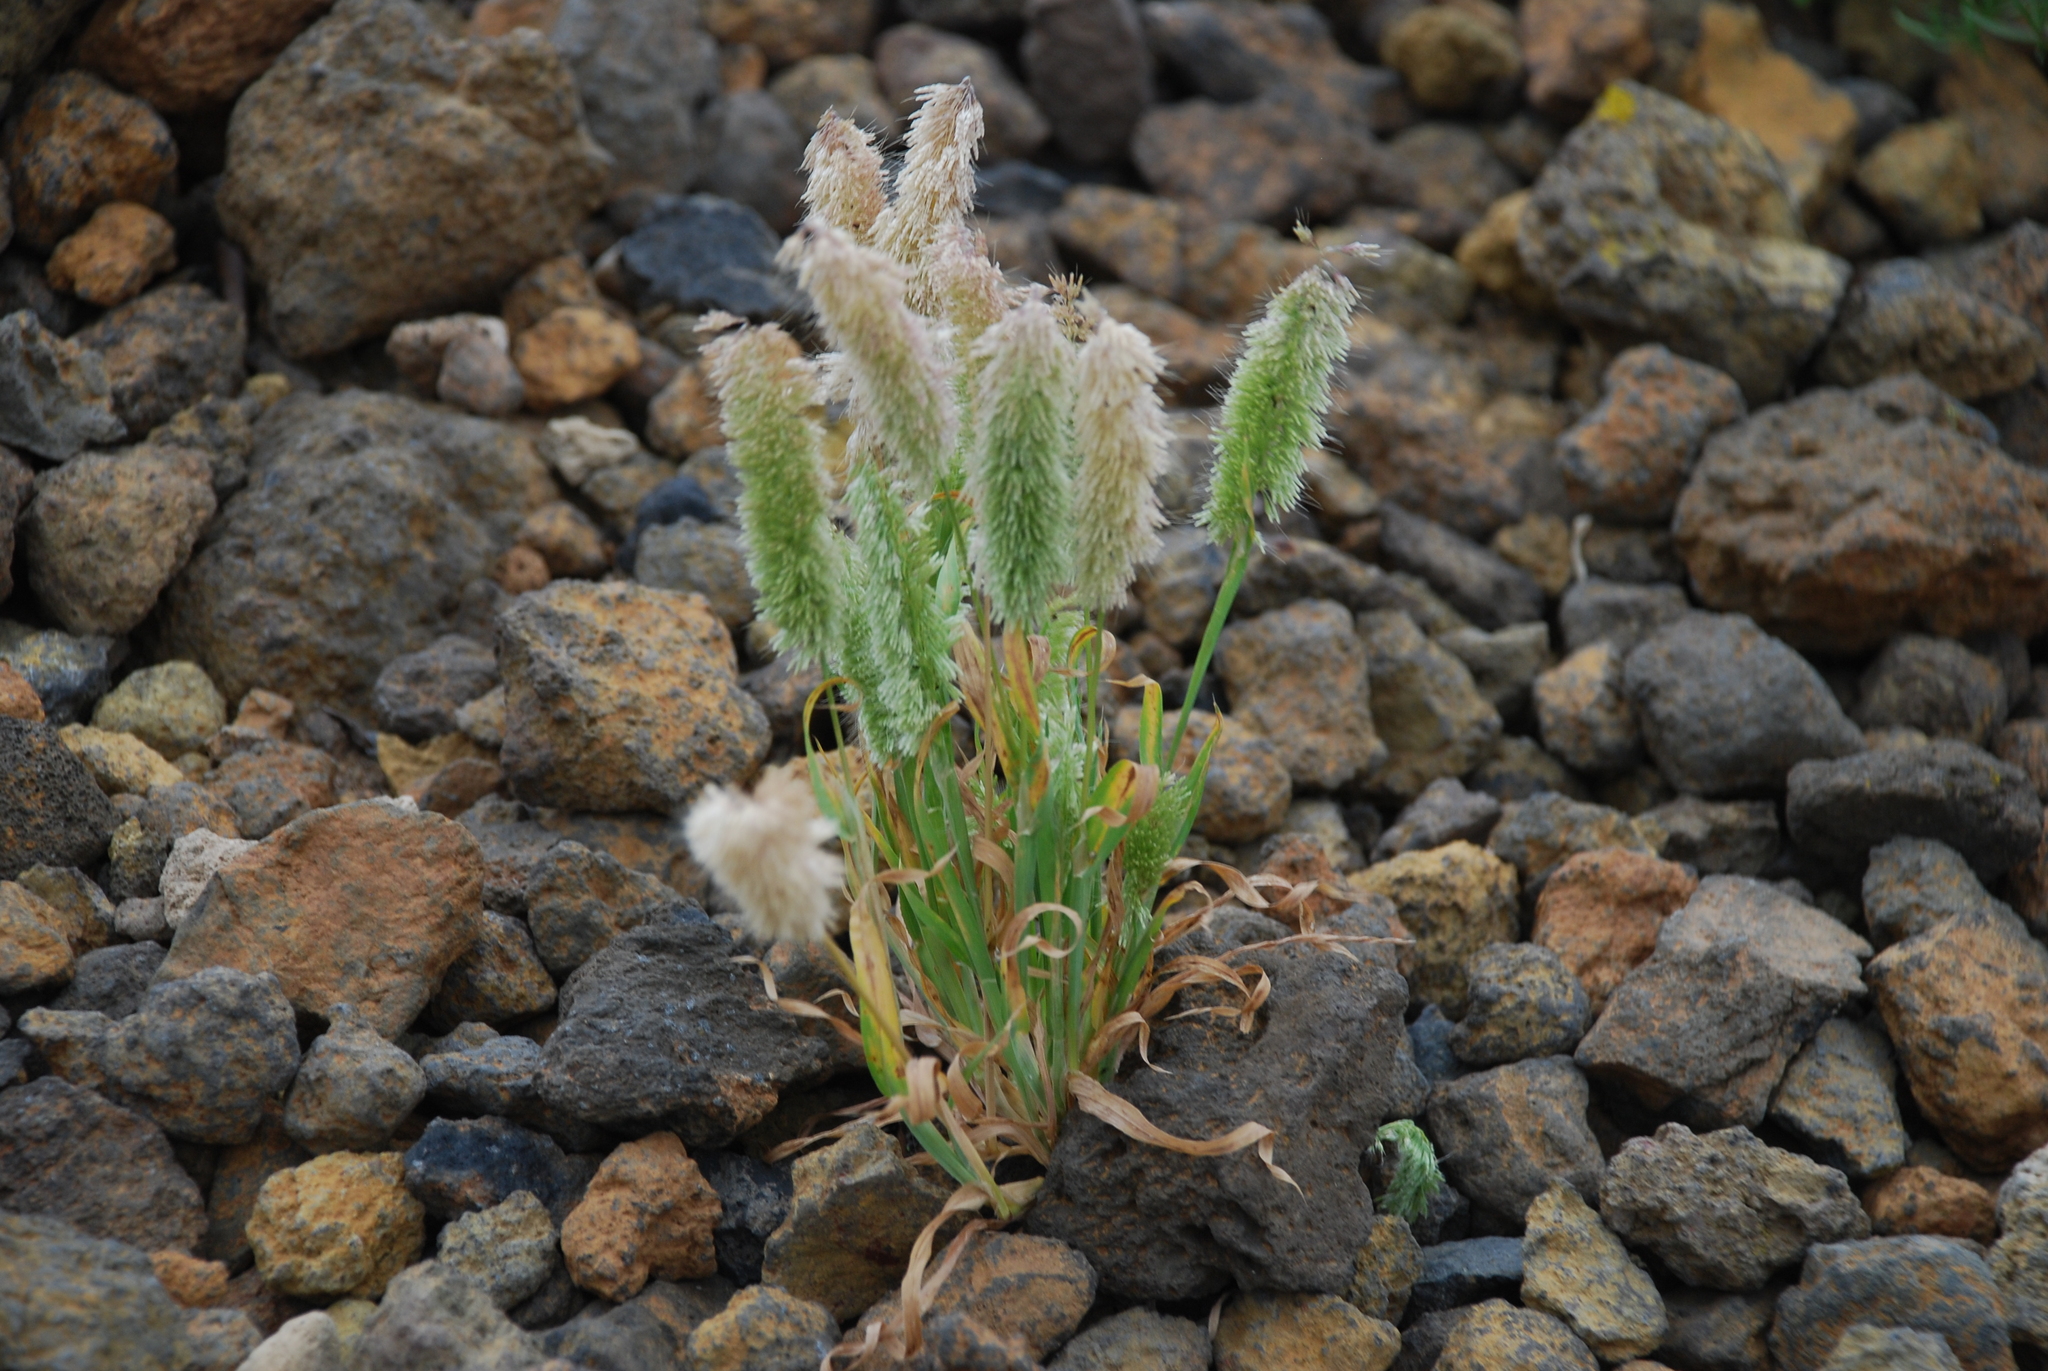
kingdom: Plantae
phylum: Tracheophyta
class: Liliopsida
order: Poales
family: Poaceae
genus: Lamarckia
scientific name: Lamarckia aurea
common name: Golden dog's-tail
